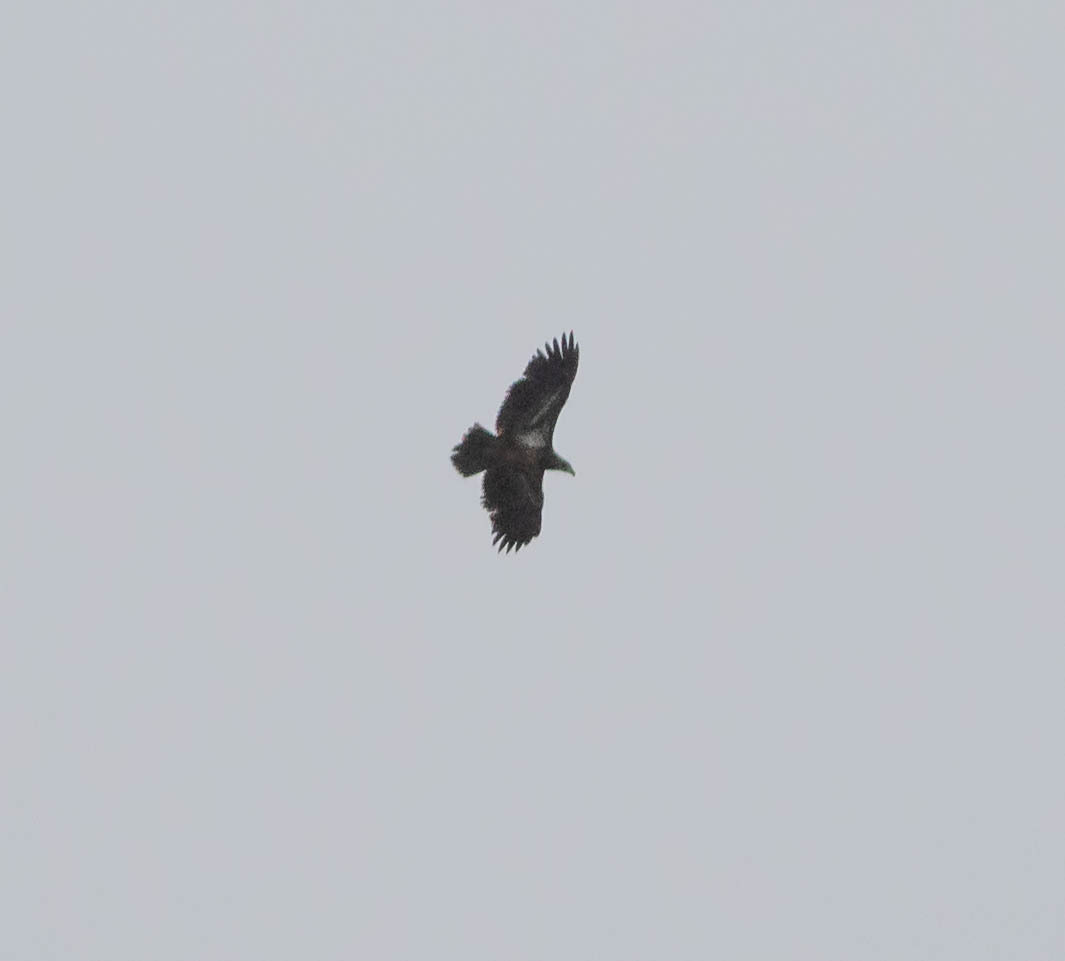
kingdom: Animalia
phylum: Chordata
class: Aves
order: Accipitriformes
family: Accipitridae
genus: Haliaeetus
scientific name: Haliaeetus leucocephalus
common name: Bald eagle
